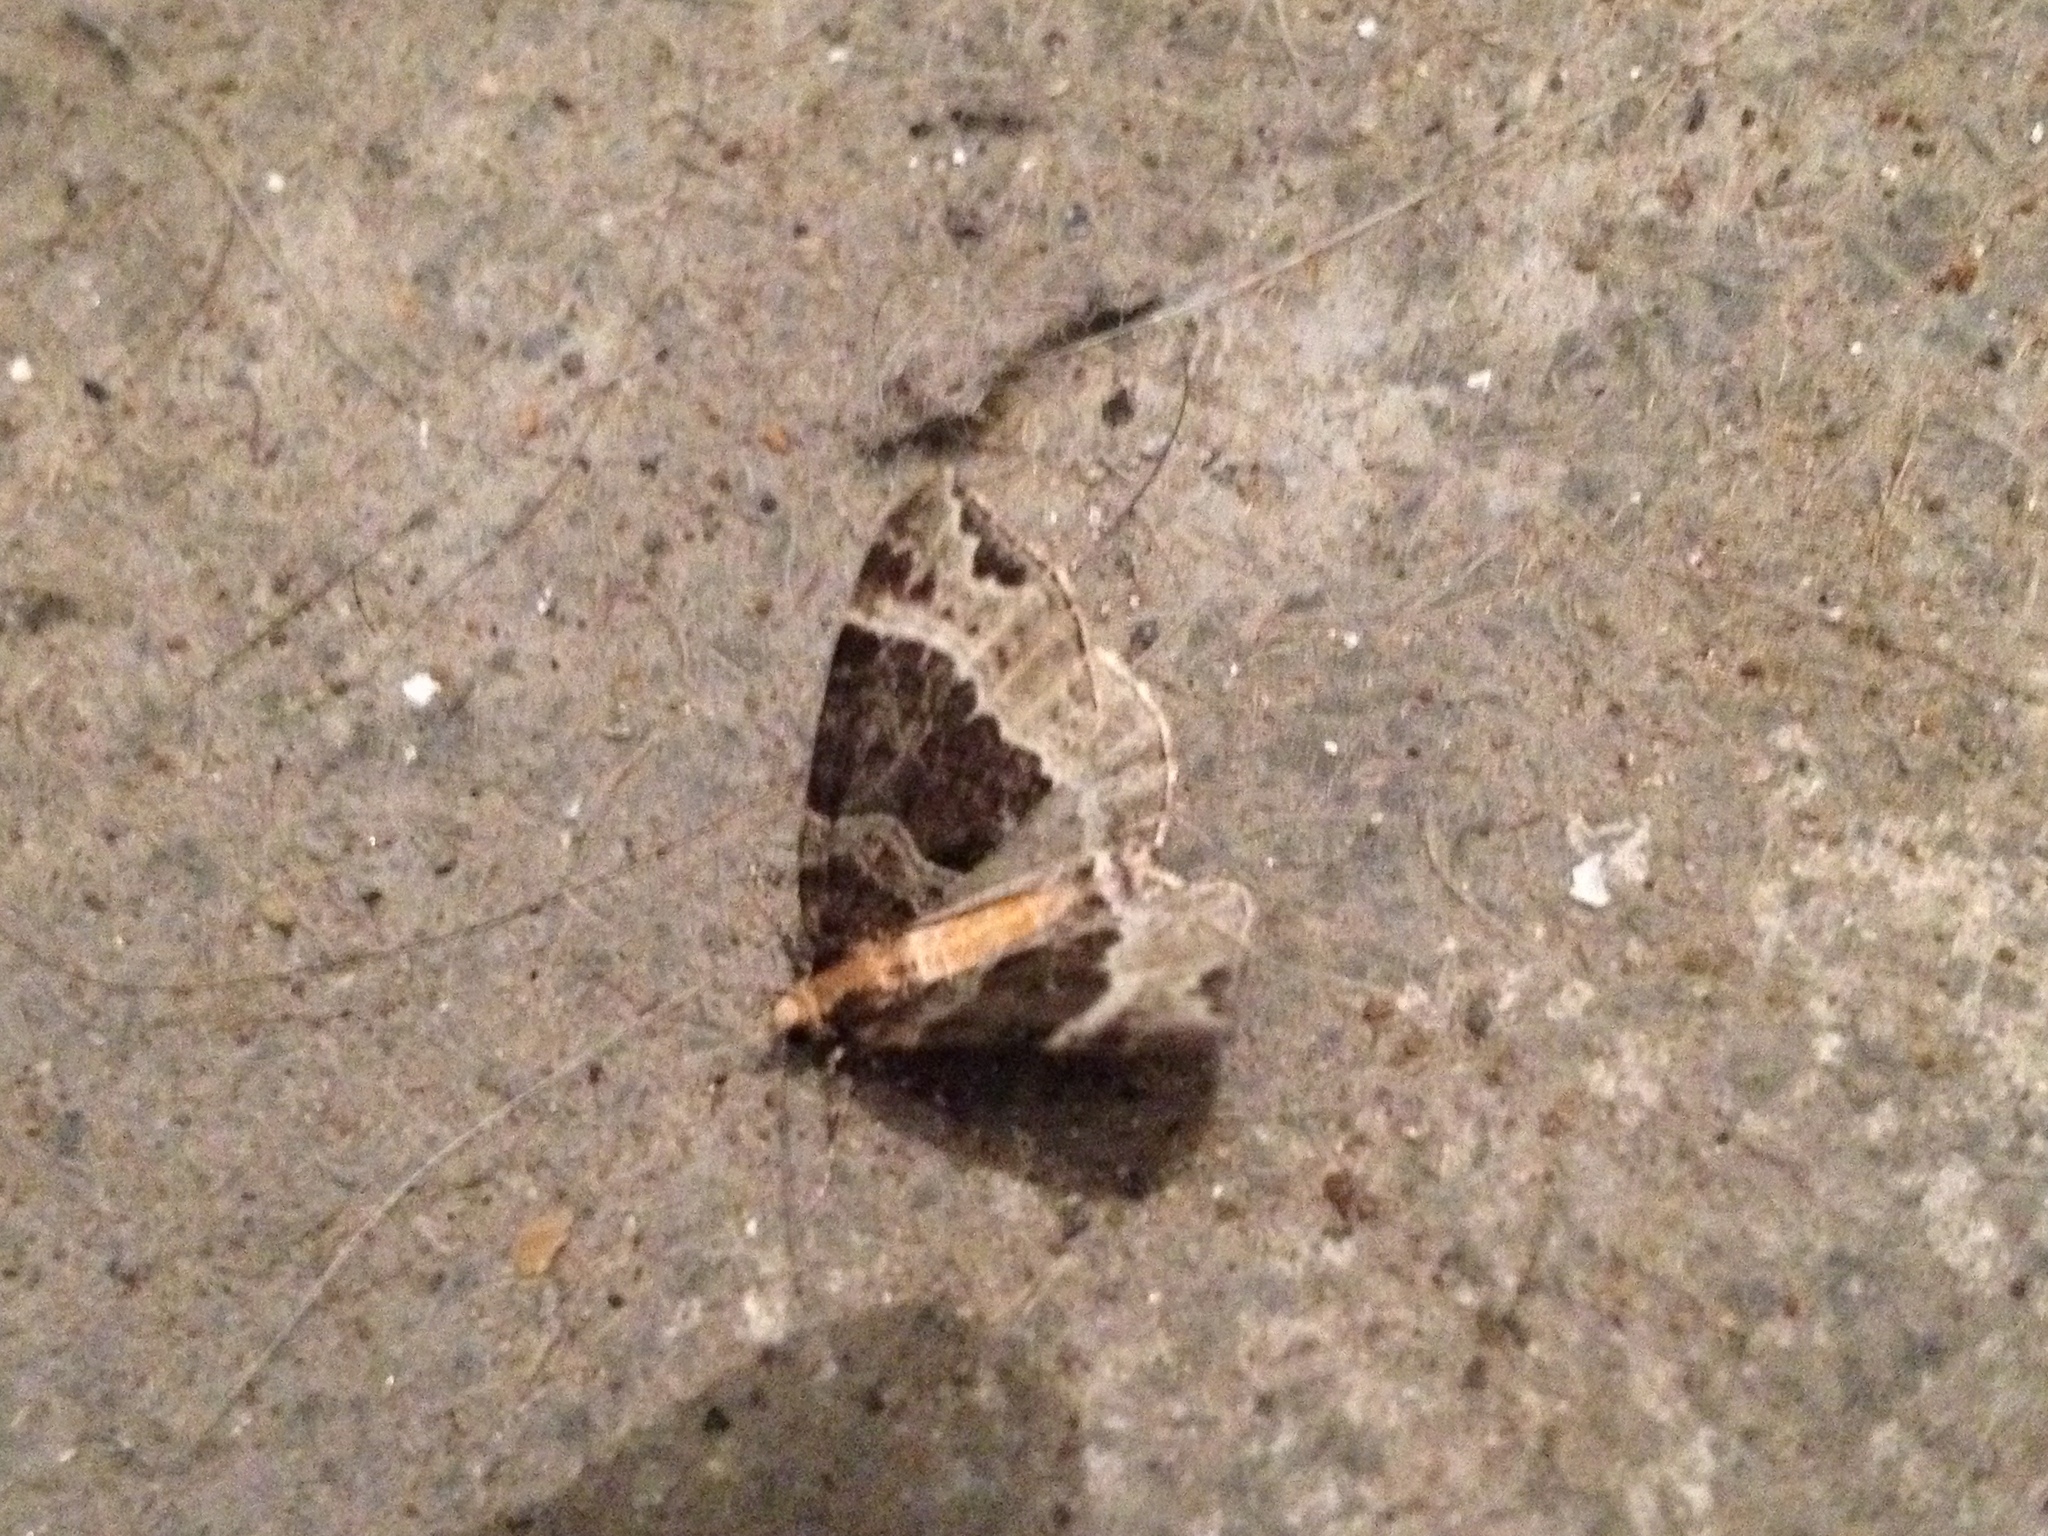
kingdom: Animalia
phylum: Arthropoda
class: Insecta
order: Lepidoptera
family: Geometridae
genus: Ecliptopera
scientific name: Ecliptopera capitata
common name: Yellow-headed phoenix
